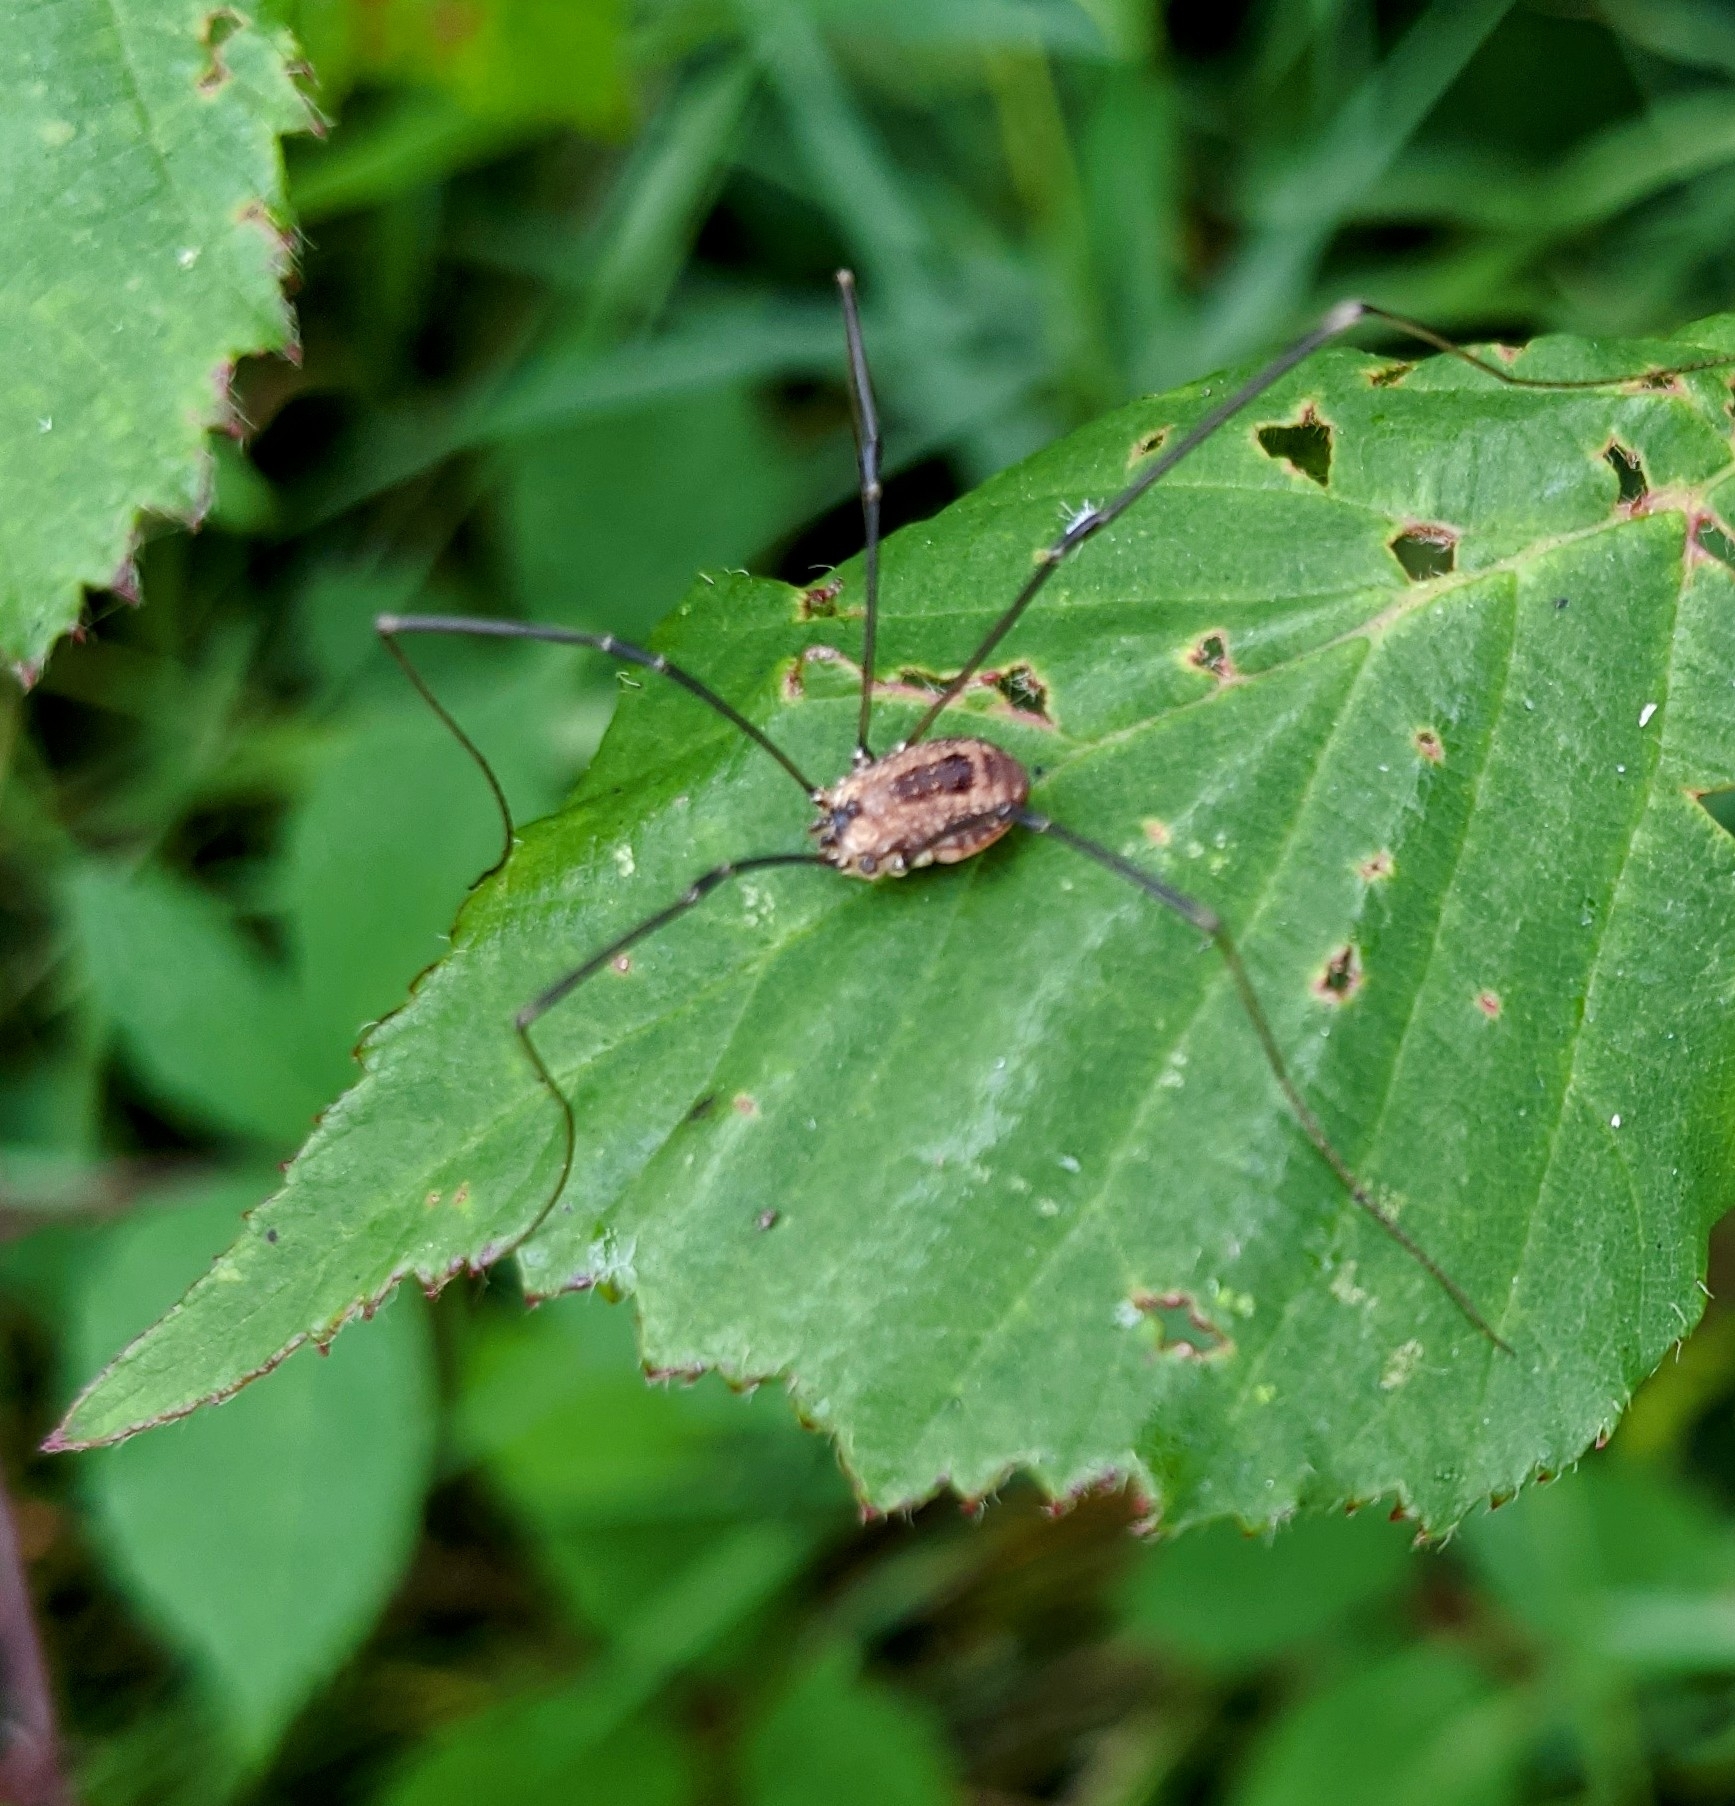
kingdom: Animalia
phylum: Arthropoda
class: Arachnida
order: Opiliones
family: Sclerosomatidae
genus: Leiobunum
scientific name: Leiobunum rotundum
